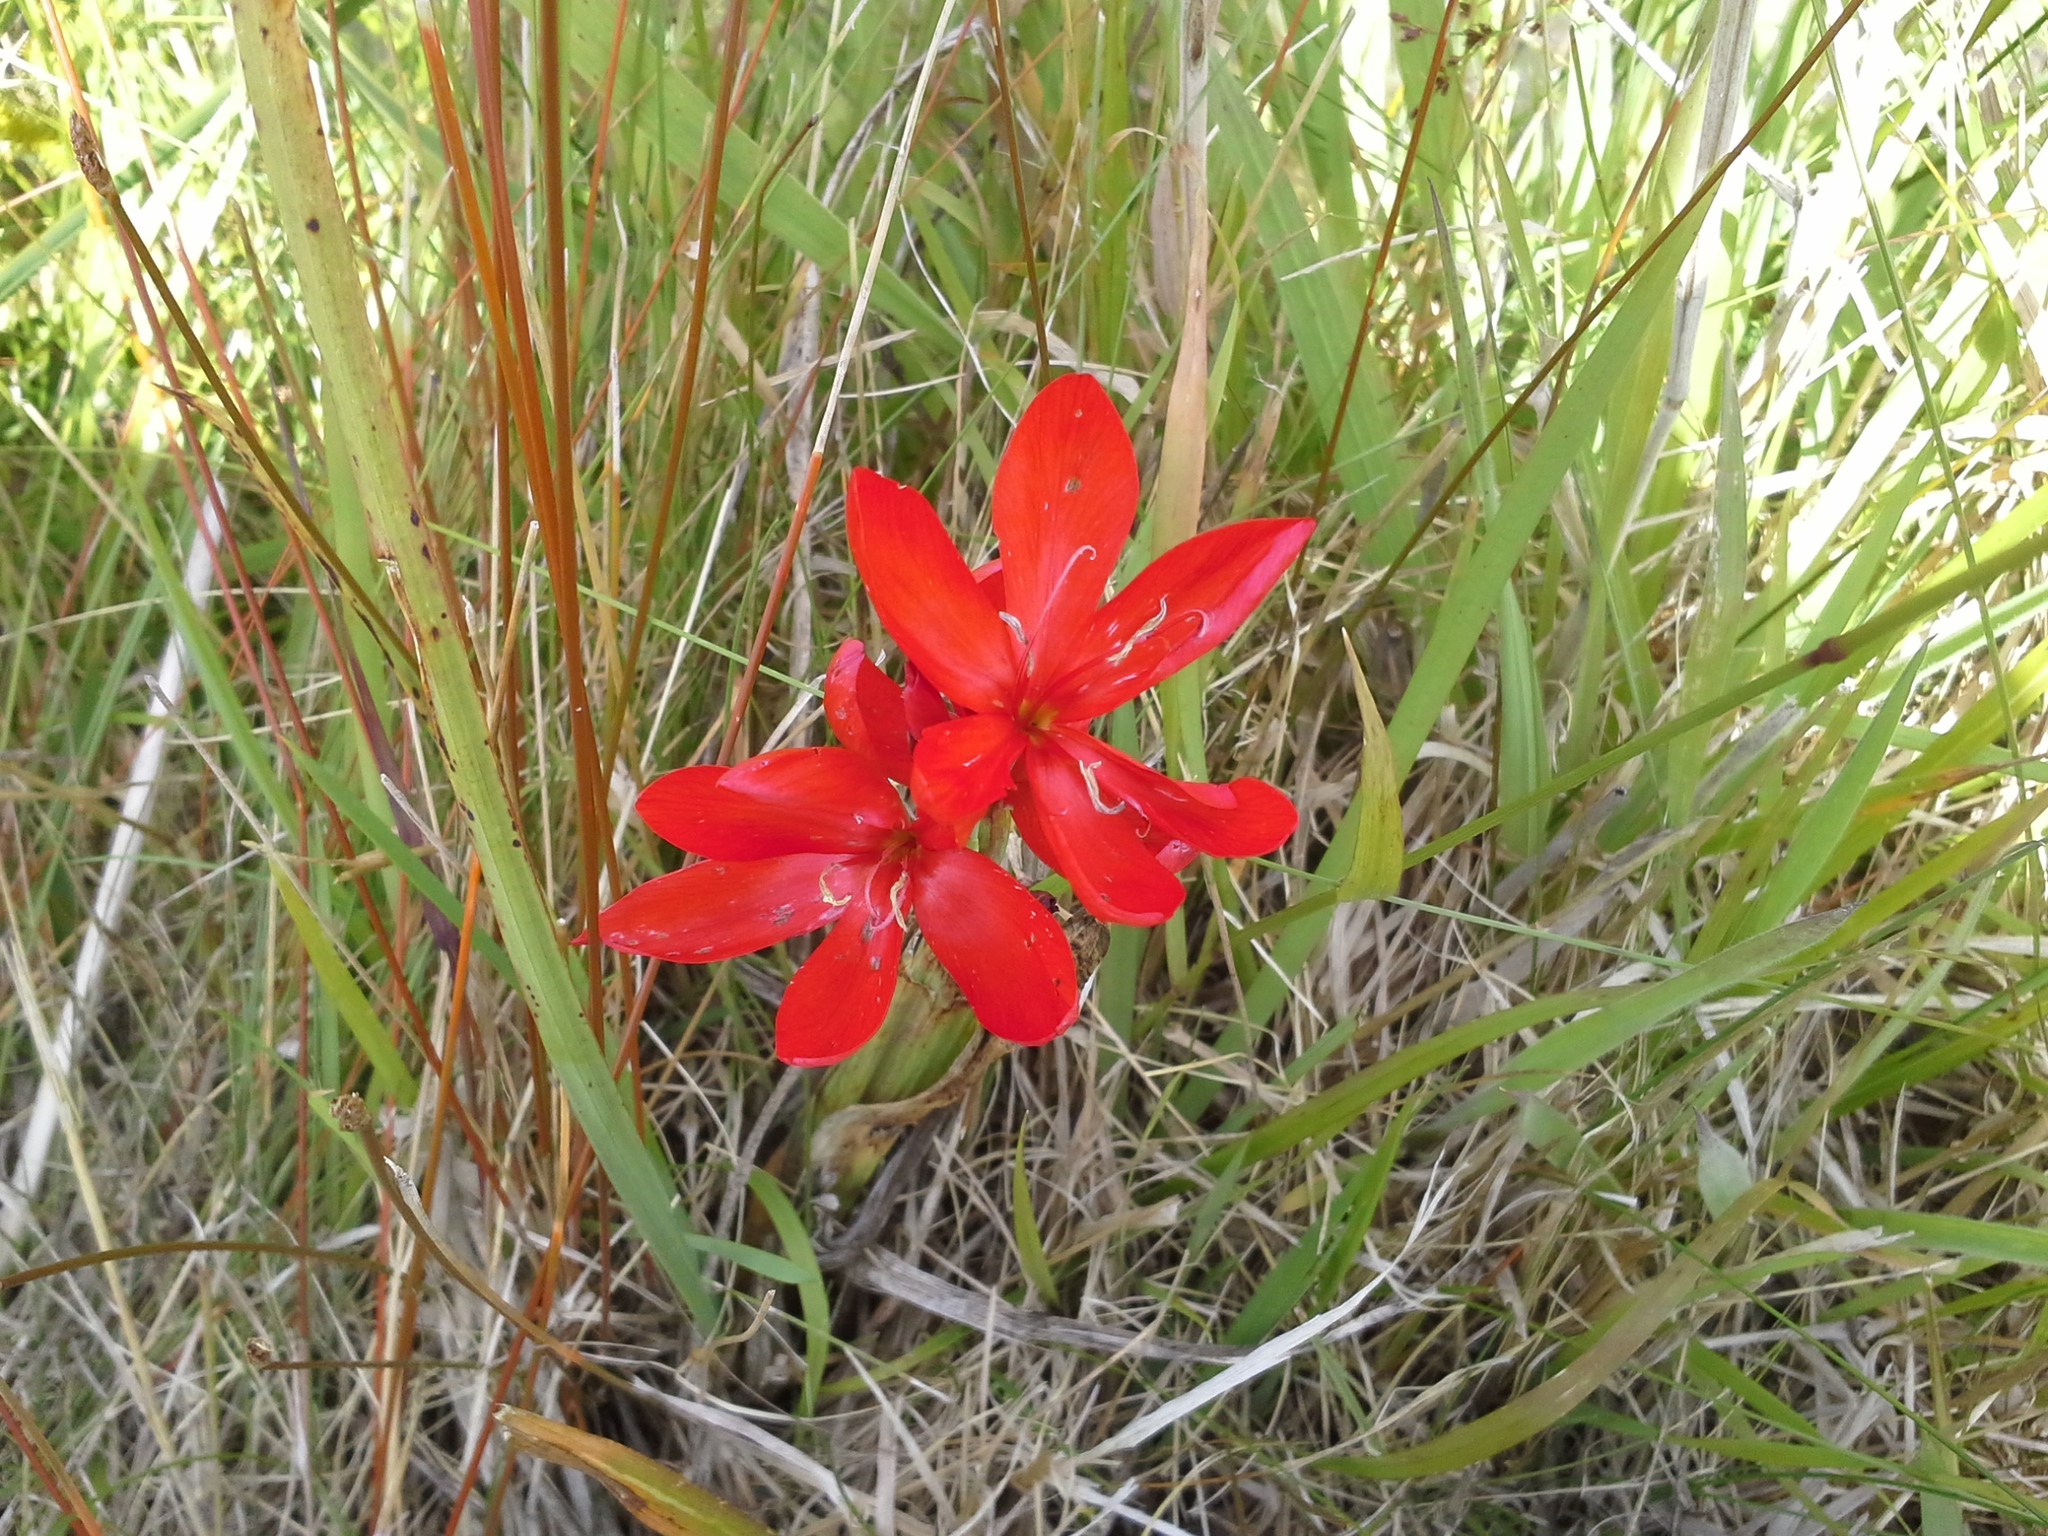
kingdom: Plantae
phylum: Tracheophyta
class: Liliopsida
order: Asparagales
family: Iridaceae
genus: Hesperantha
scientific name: Hesperantha coccinea
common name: River-lily
